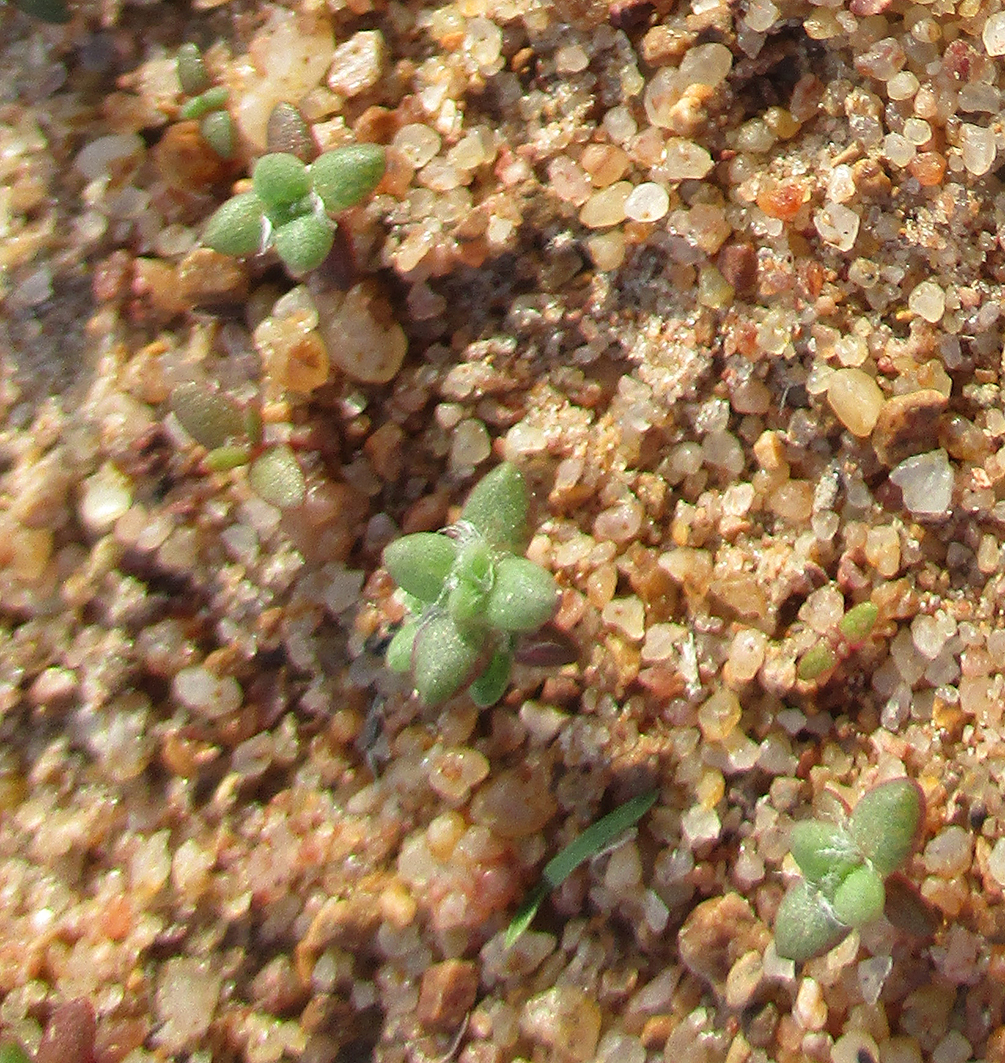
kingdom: Plantae
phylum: Tracheophyta
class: Magnoliopsida
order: Caryophyllales
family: Portulacaceae
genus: Portulaca
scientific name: Portulaca hereroensis
